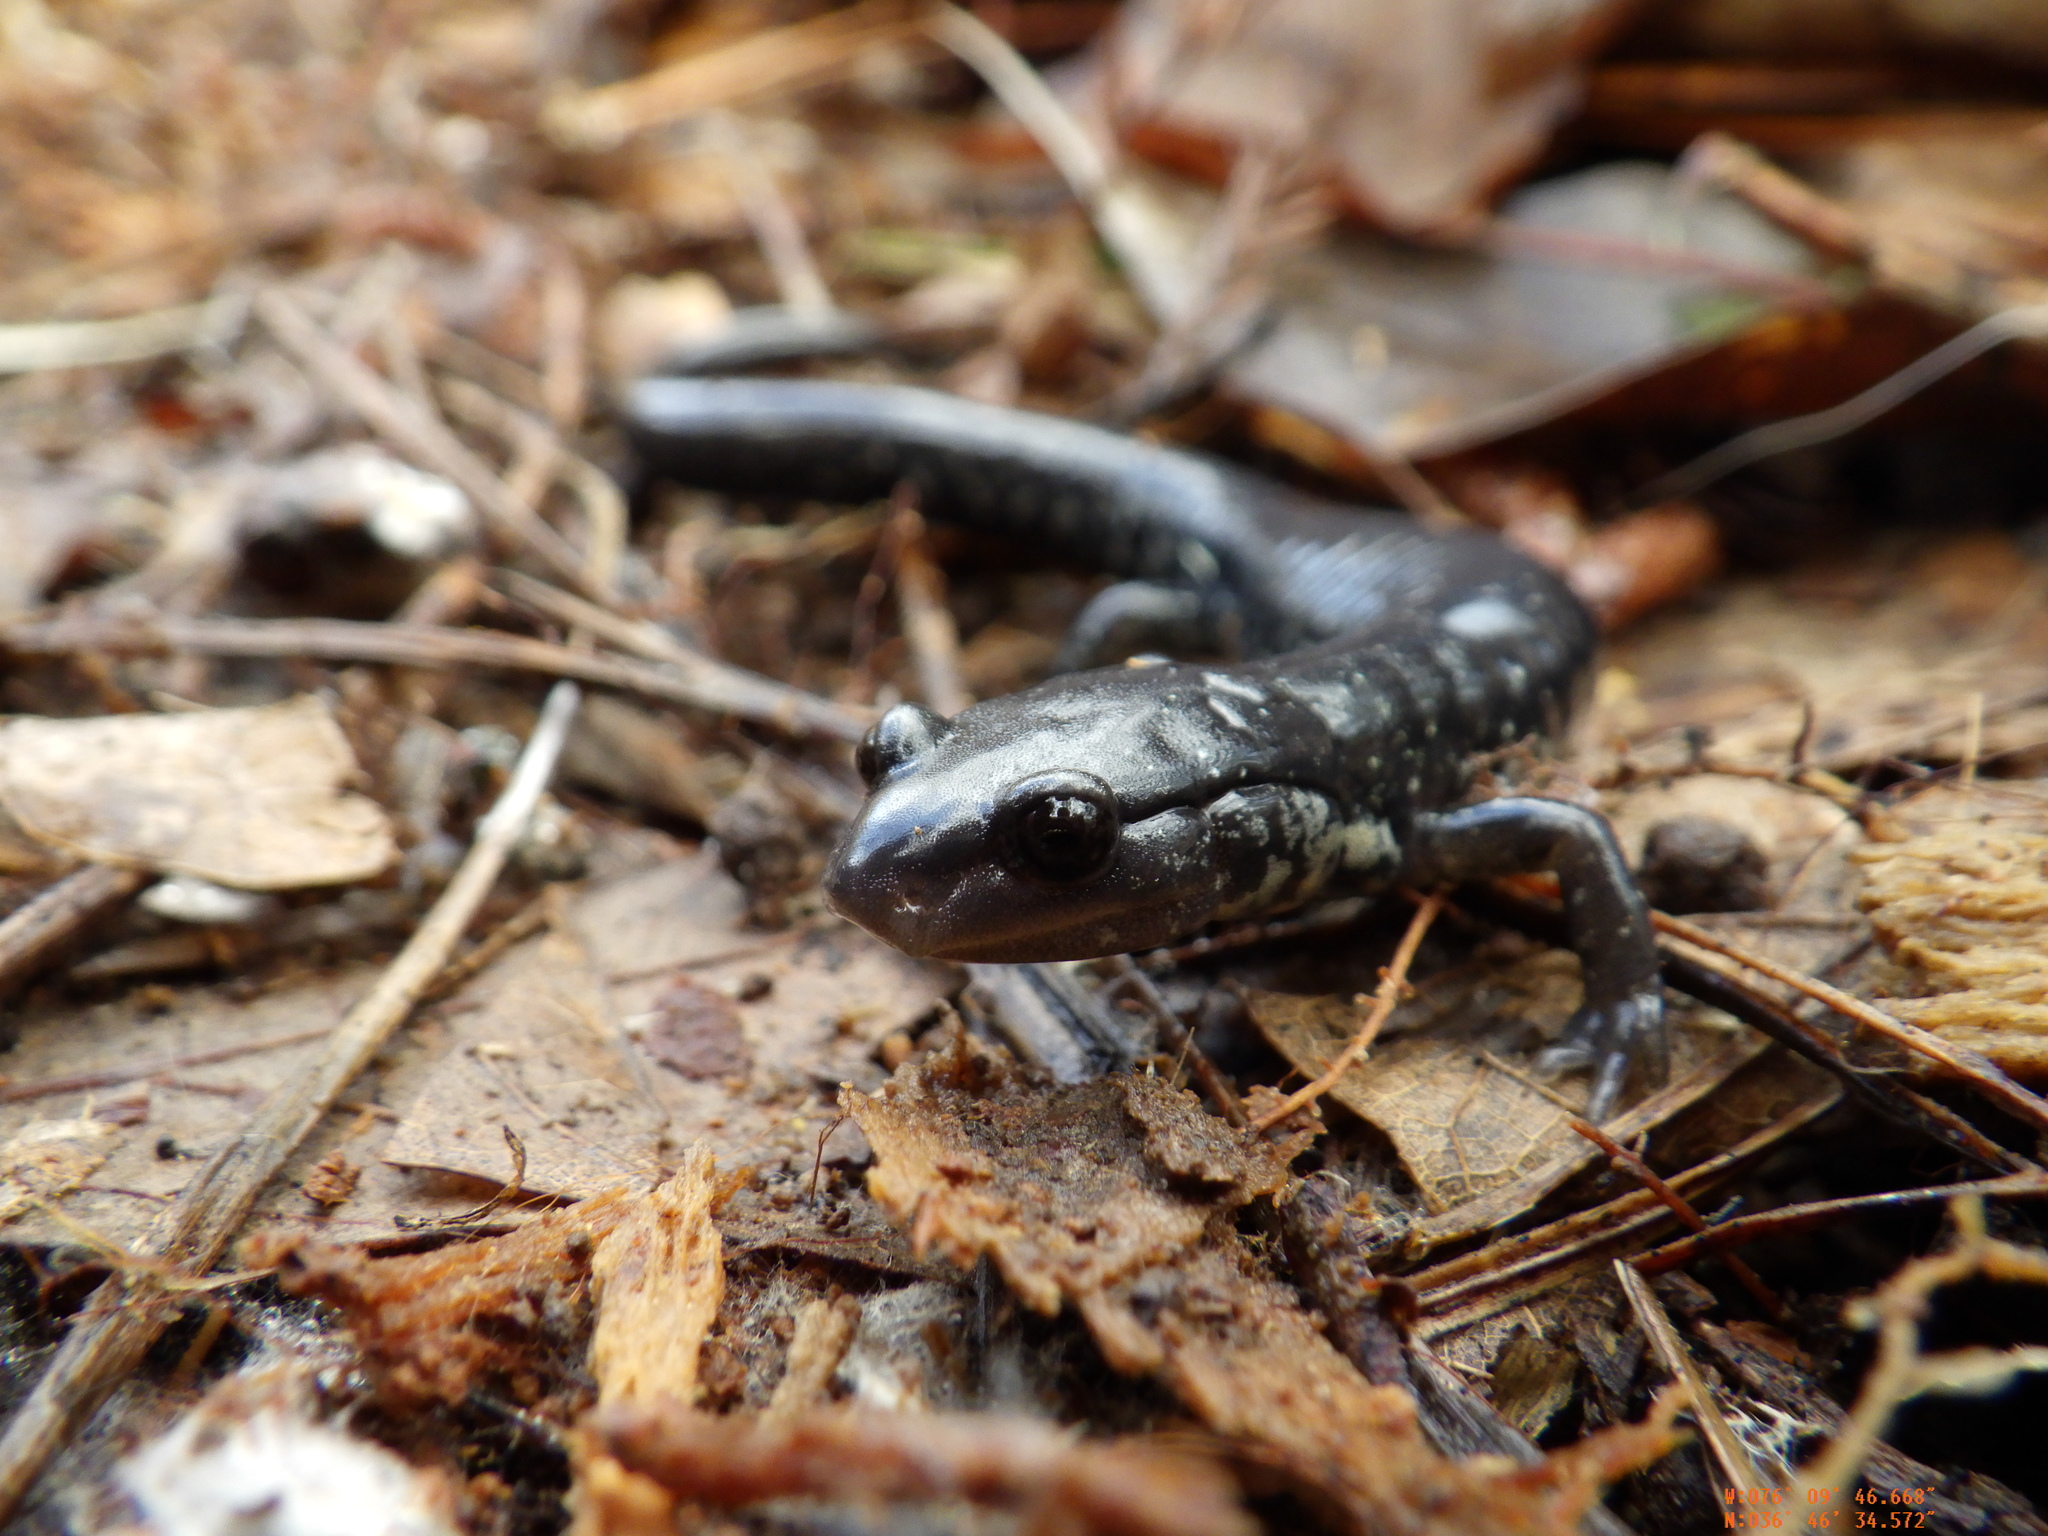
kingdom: Animalia
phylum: Chordata
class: Amphibia
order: Caudata
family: Plethodontidae
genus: Plethodon
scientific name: Plethodon chlorobryonis
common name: Atlantic coast slimy salamander
